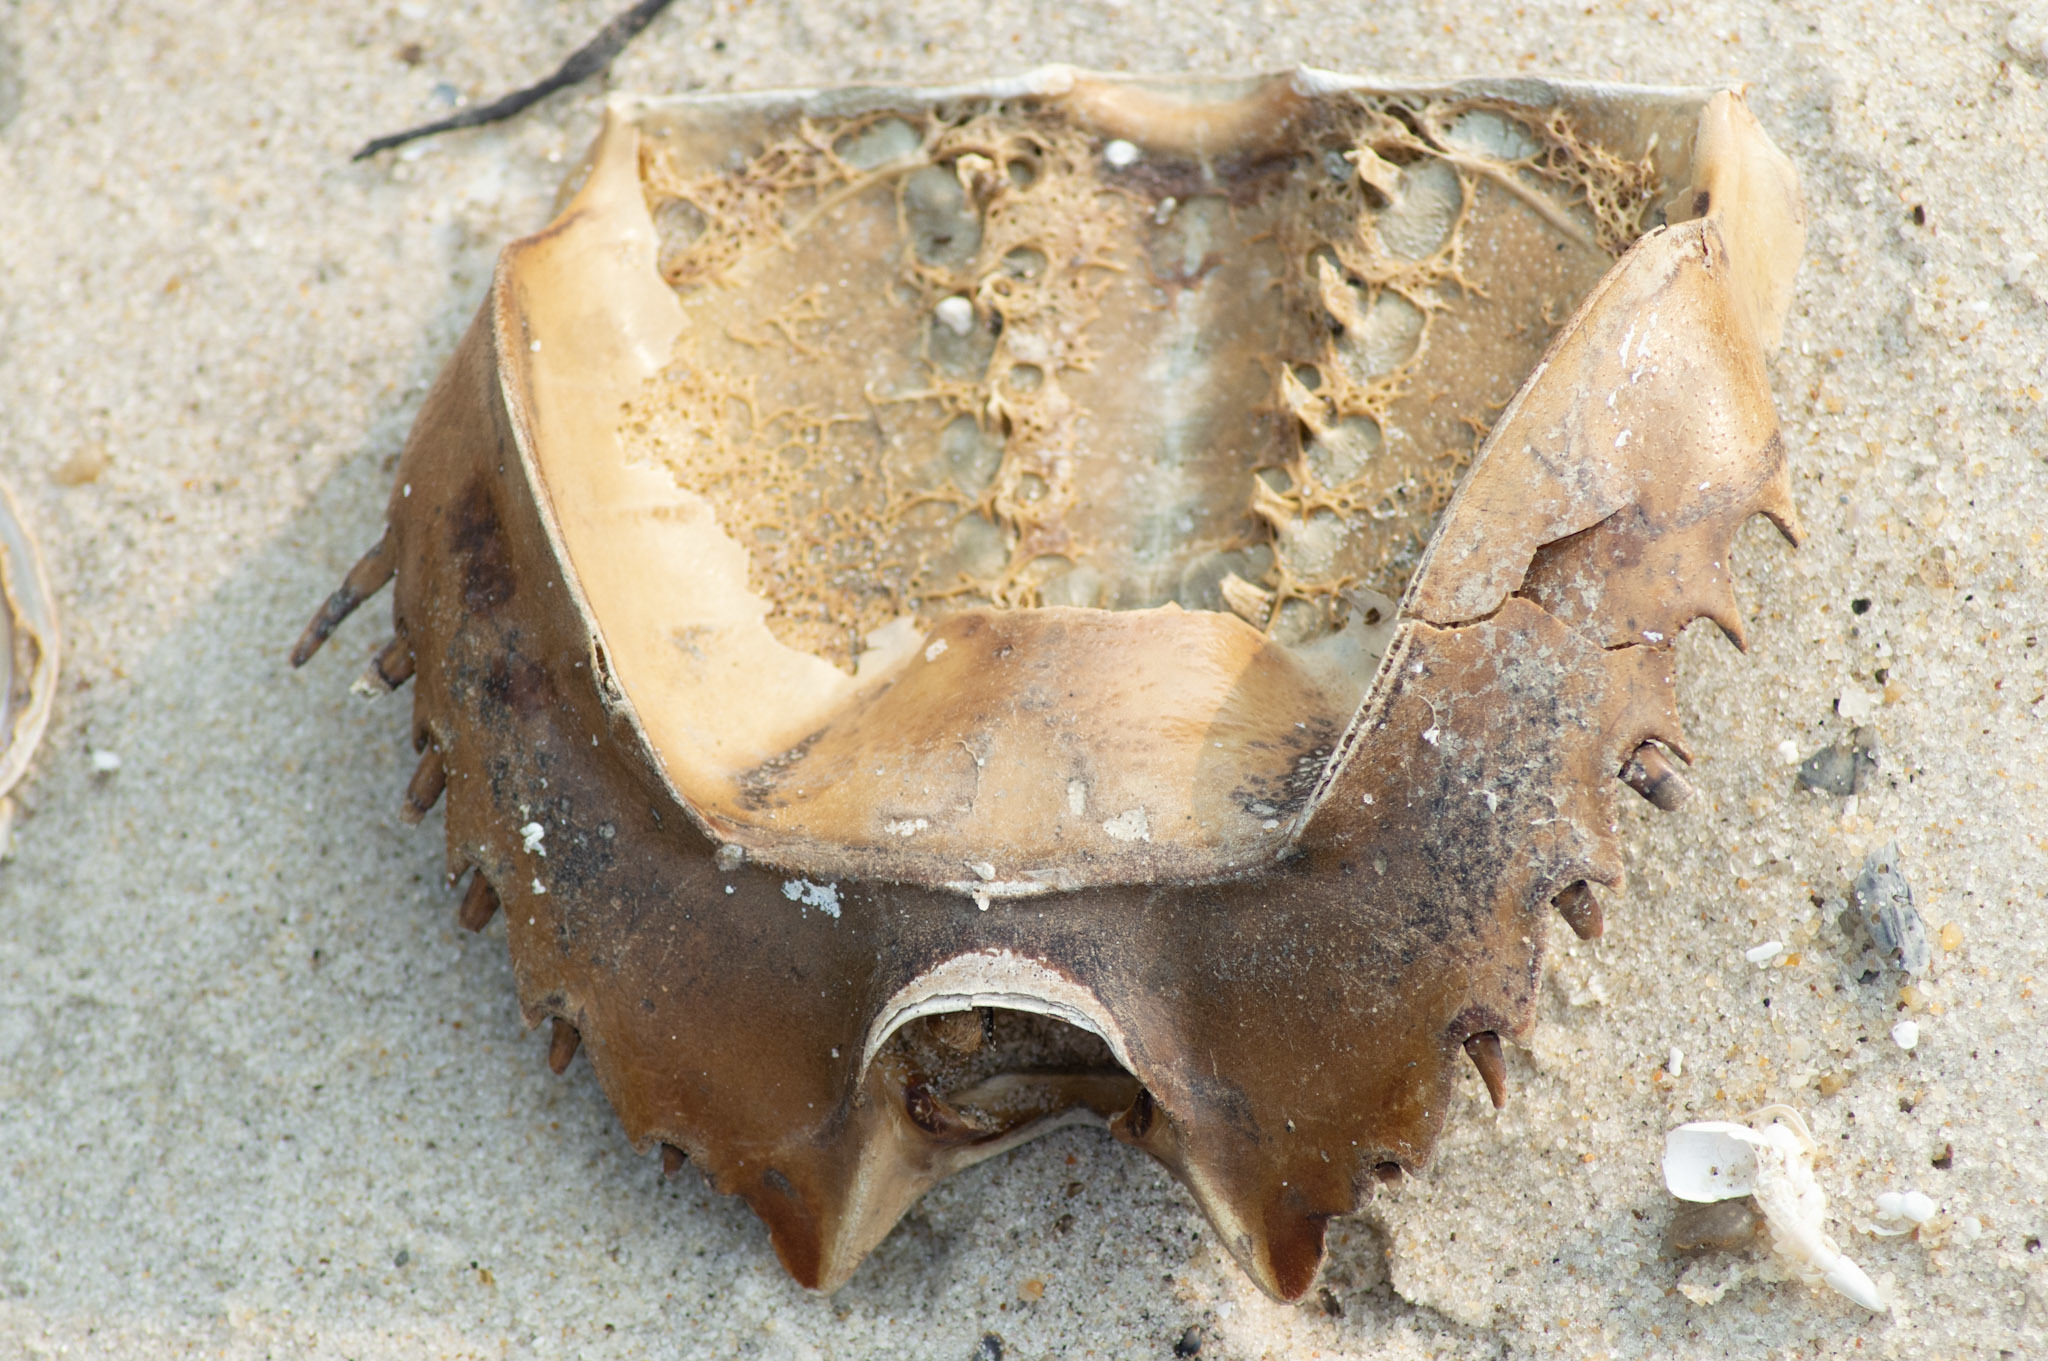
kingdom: Animalia
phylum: Arthropoda
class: Merostomata
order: Xiphosurida
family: Limulidae
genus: Limulus
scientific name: Limulus polyphemus
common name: Horseshoe crab
